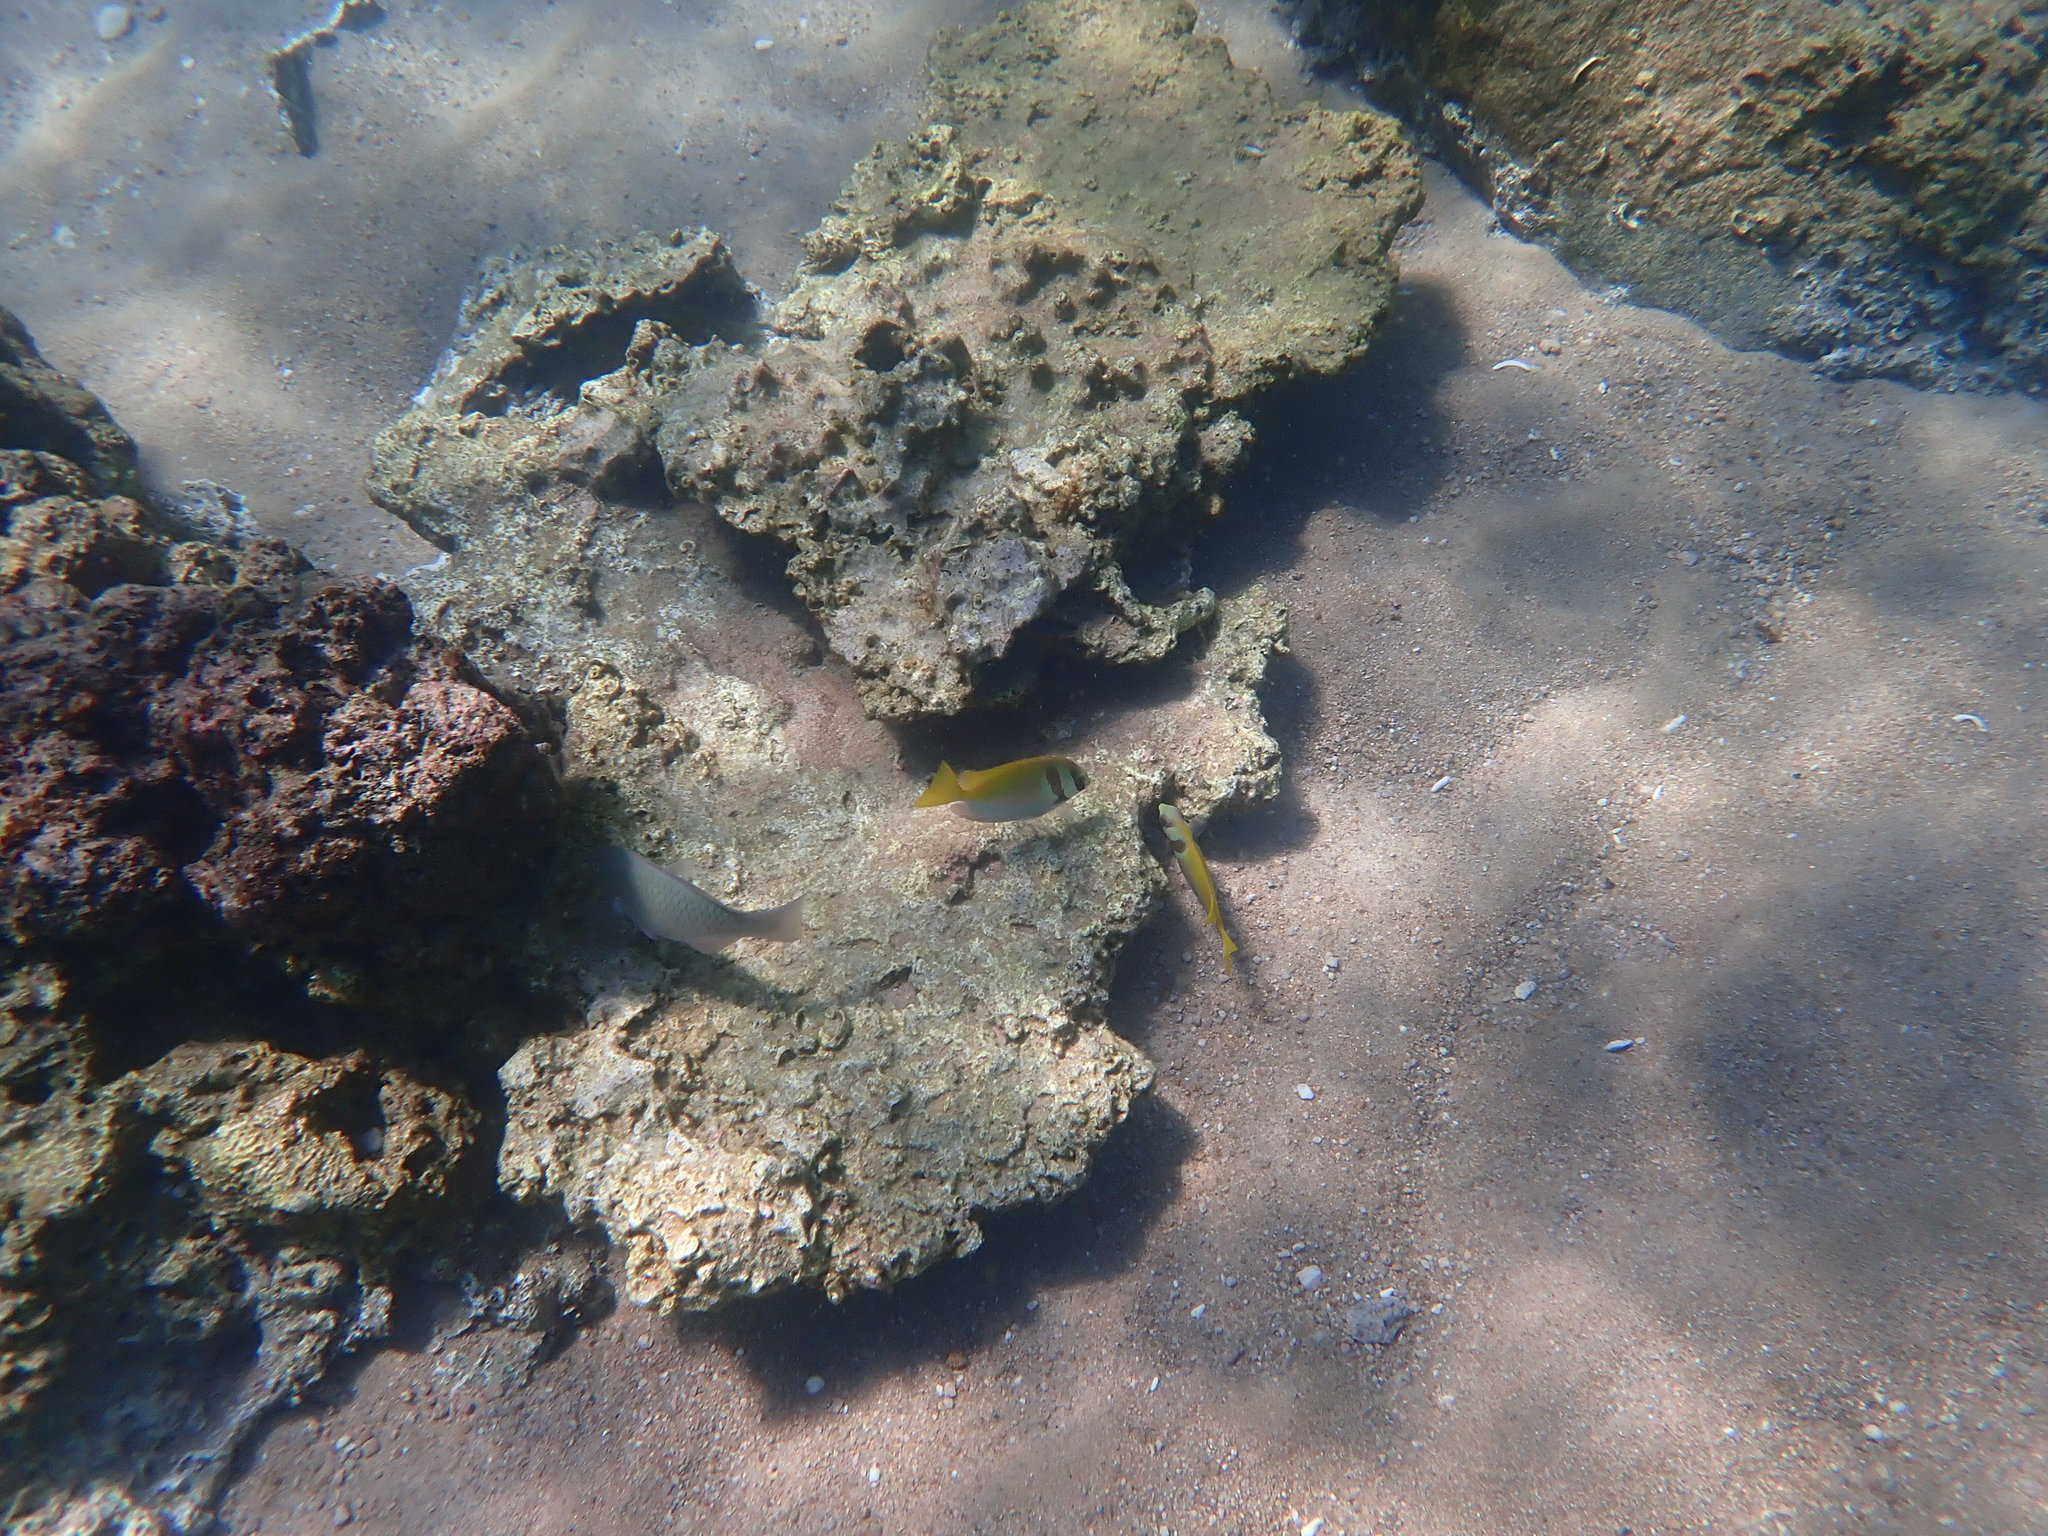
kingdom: Animalia
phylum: Chordata
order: Perciformes
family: Siganidae
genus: Siganus
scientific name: Siganus virgatus
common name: Barhead spinefoot
